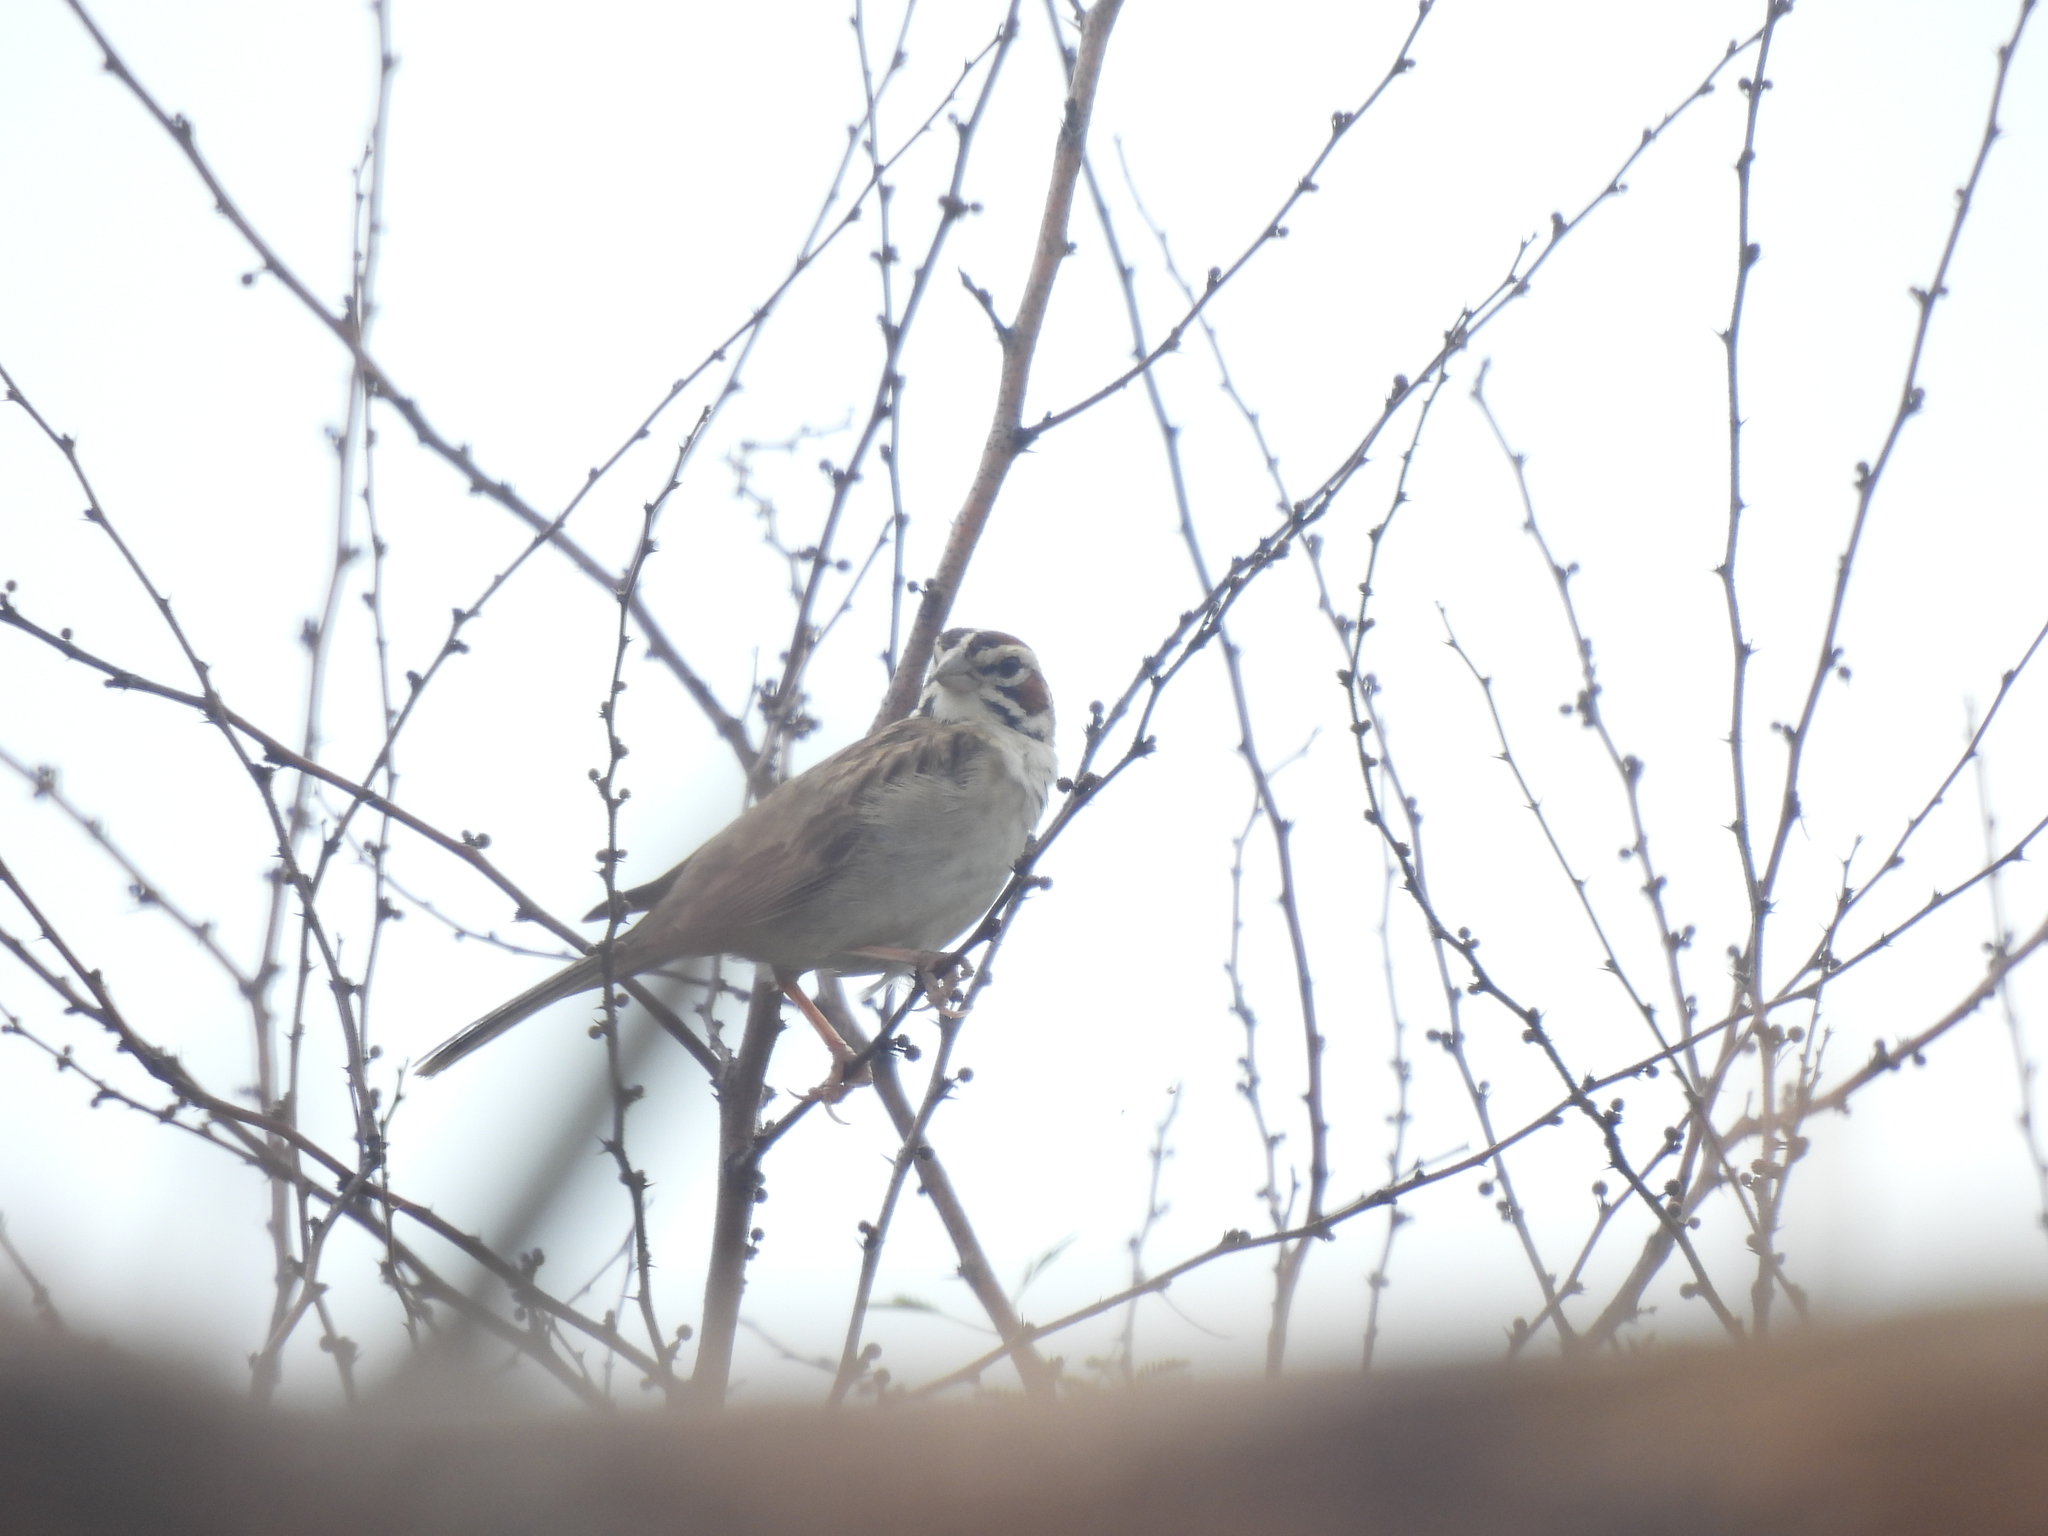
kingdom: Animalia
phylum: Chordata
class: Aves
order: Passeriformes
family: Passerellidae
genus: Chondestes
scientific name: Chondestes grammacus
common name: Lark sparrow
